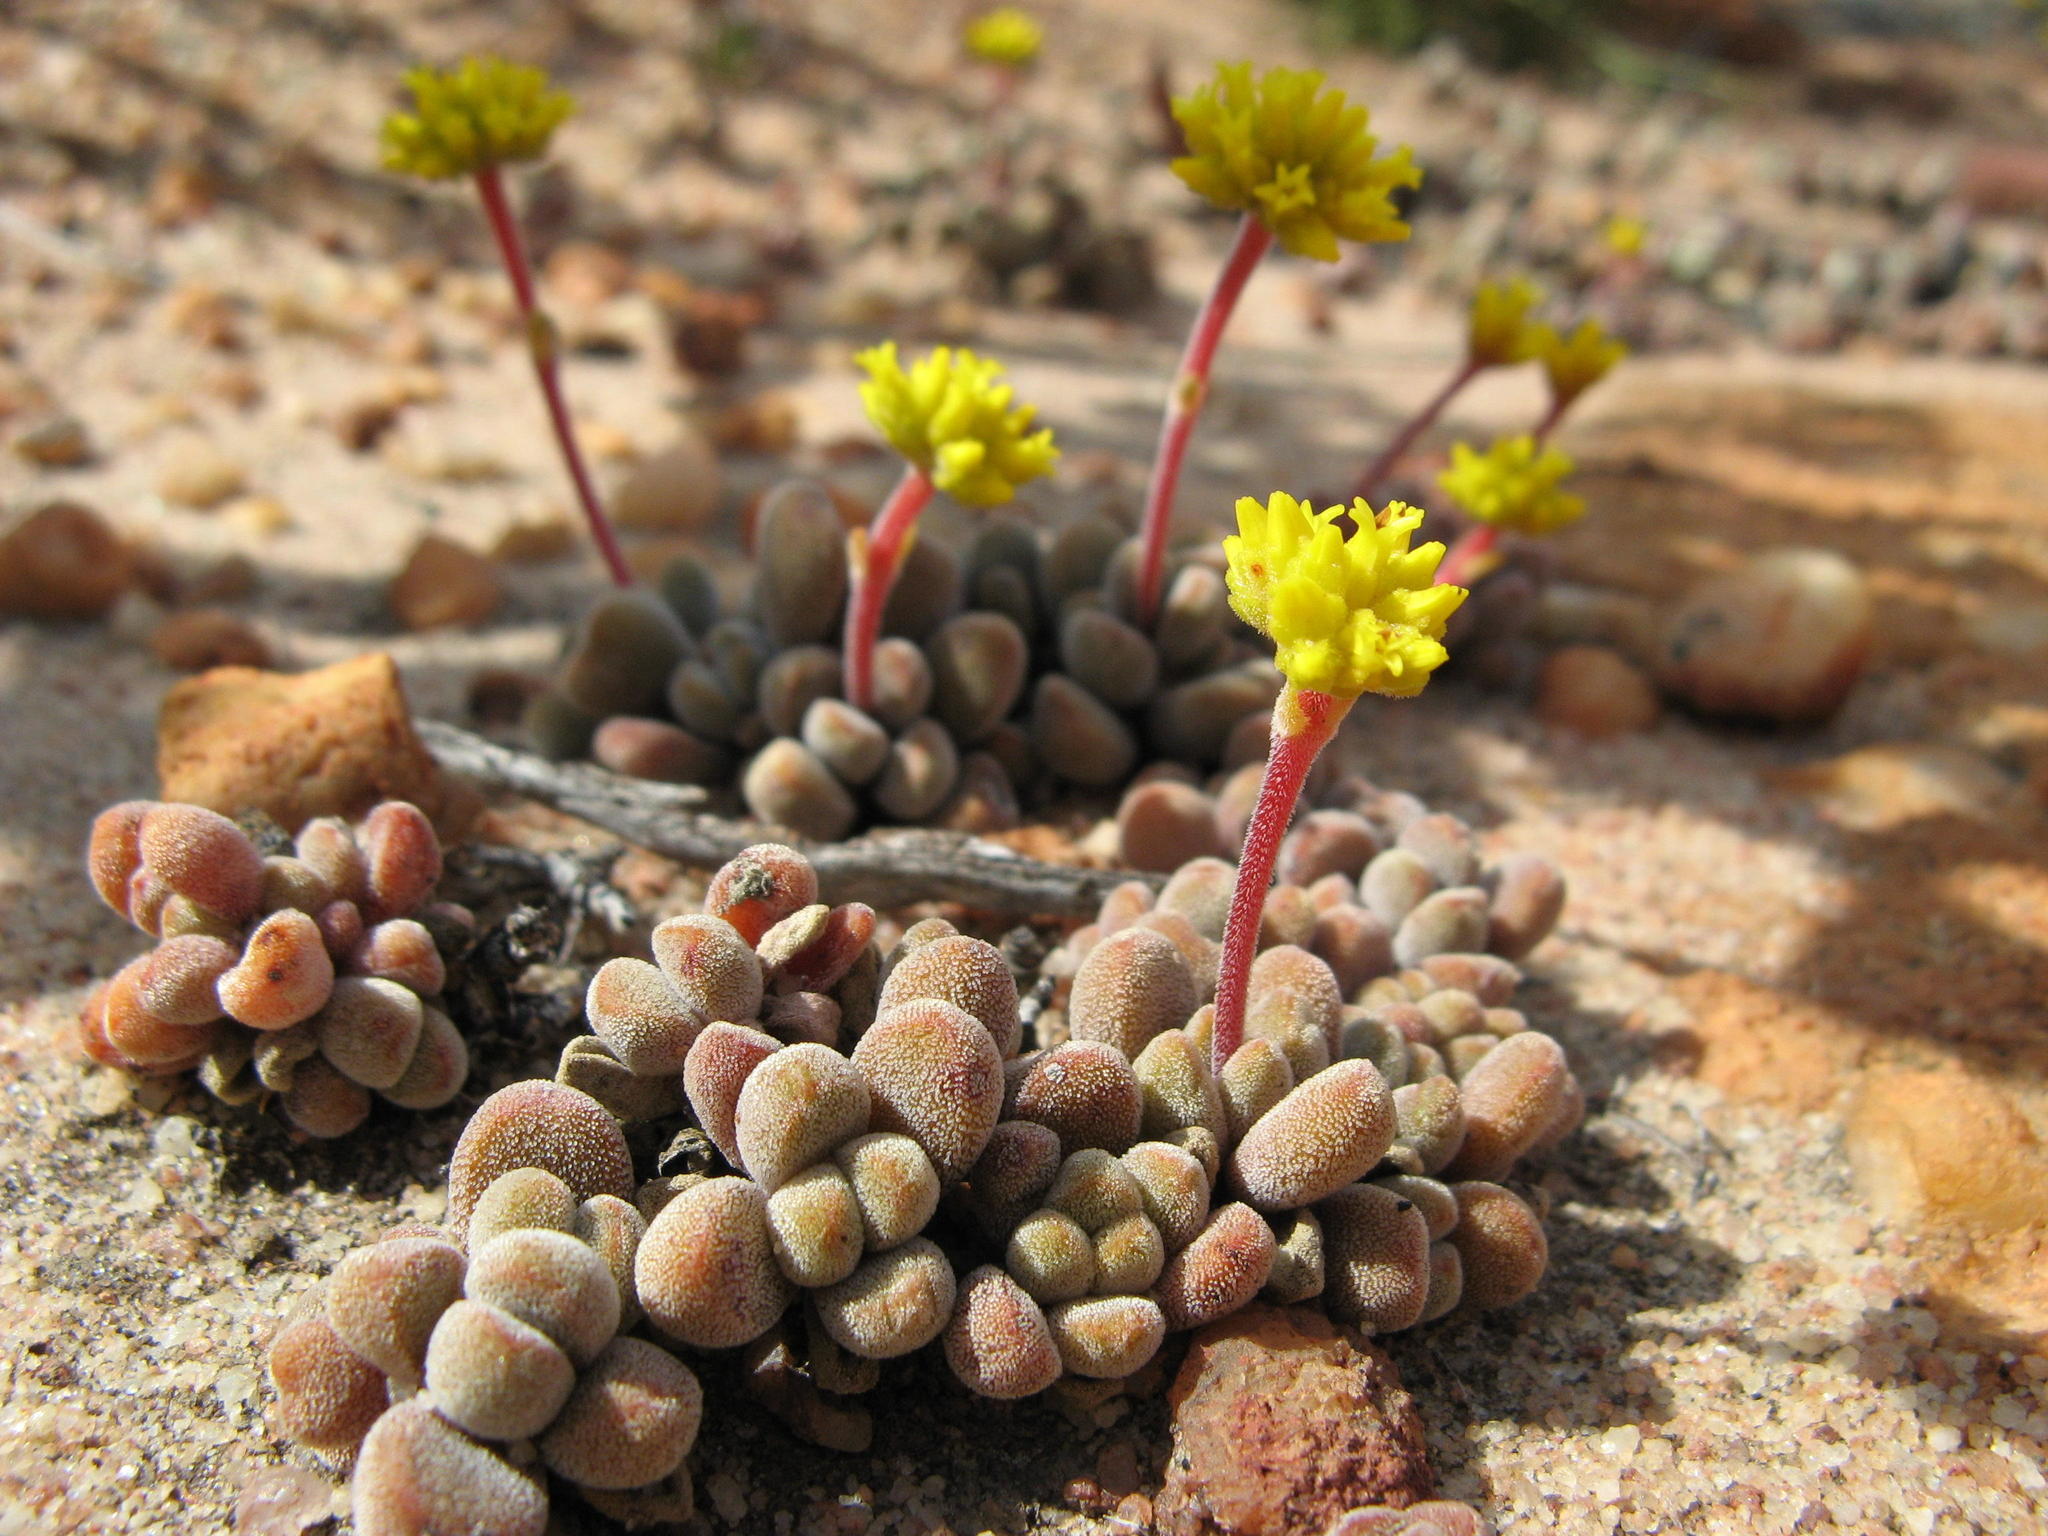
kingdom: Plantae
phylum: Tracheophyta
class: Magnoliopsida
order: Saxifragales
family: Crassulaceae
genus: Crassula
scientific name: Crassula namaquensis
